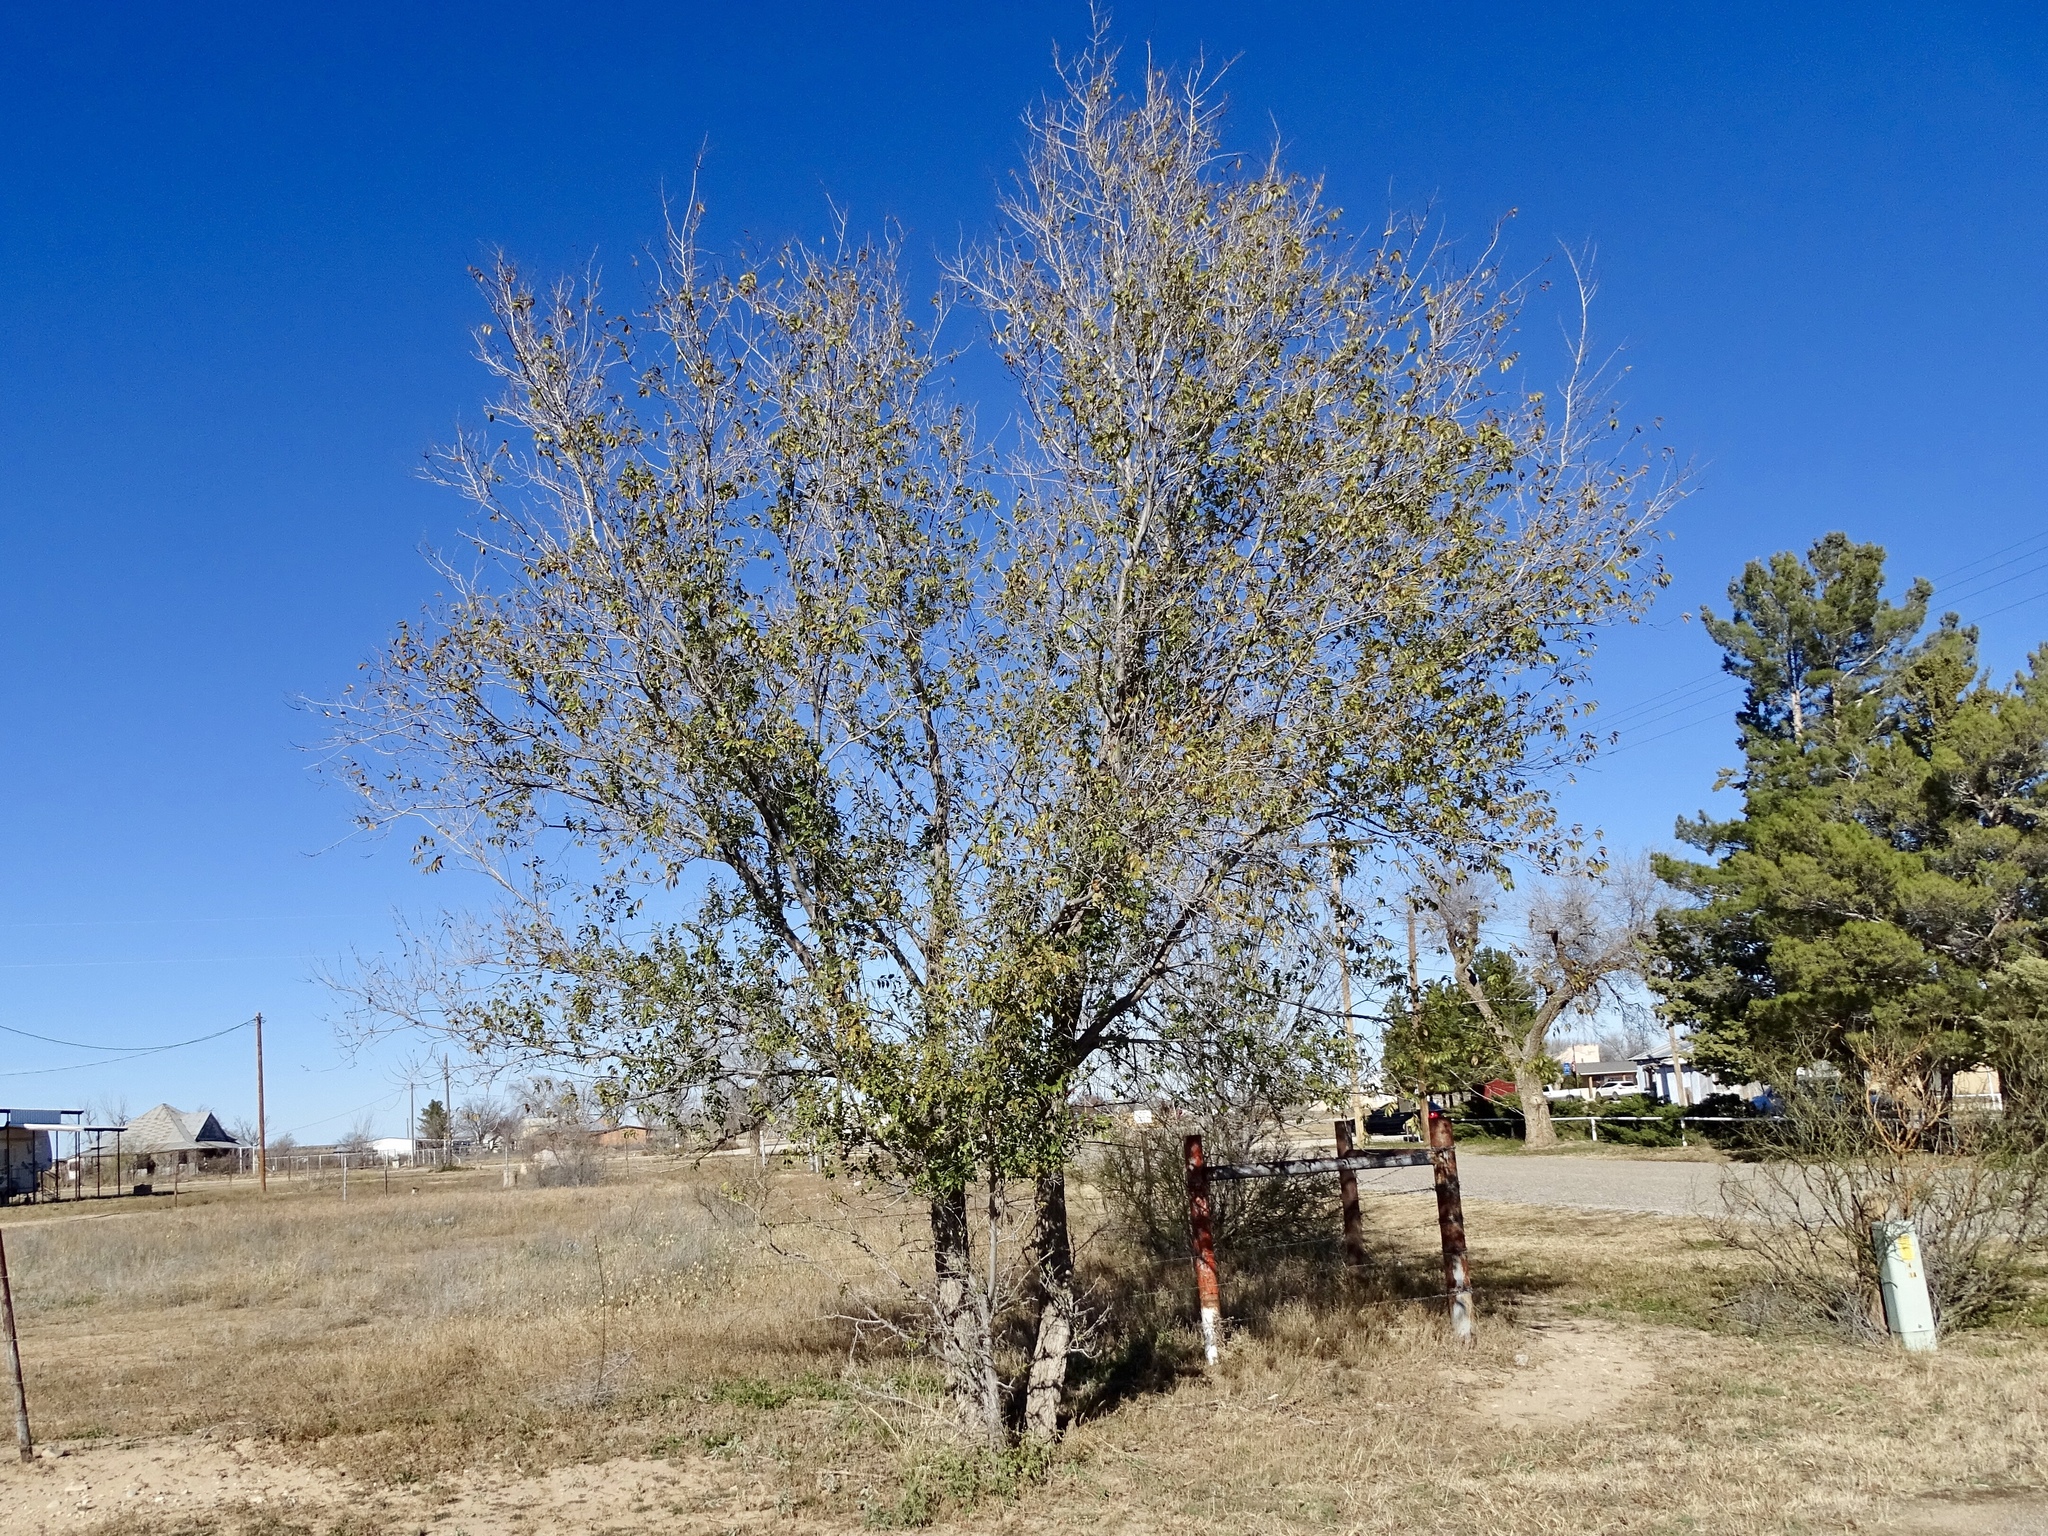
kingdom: Plantae
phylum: Tracheophyta
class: Magnoliopsida
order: Rosales
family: Ulmaceae
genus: Ulmus
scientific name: Ulmus pumila
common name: Siberian elm
